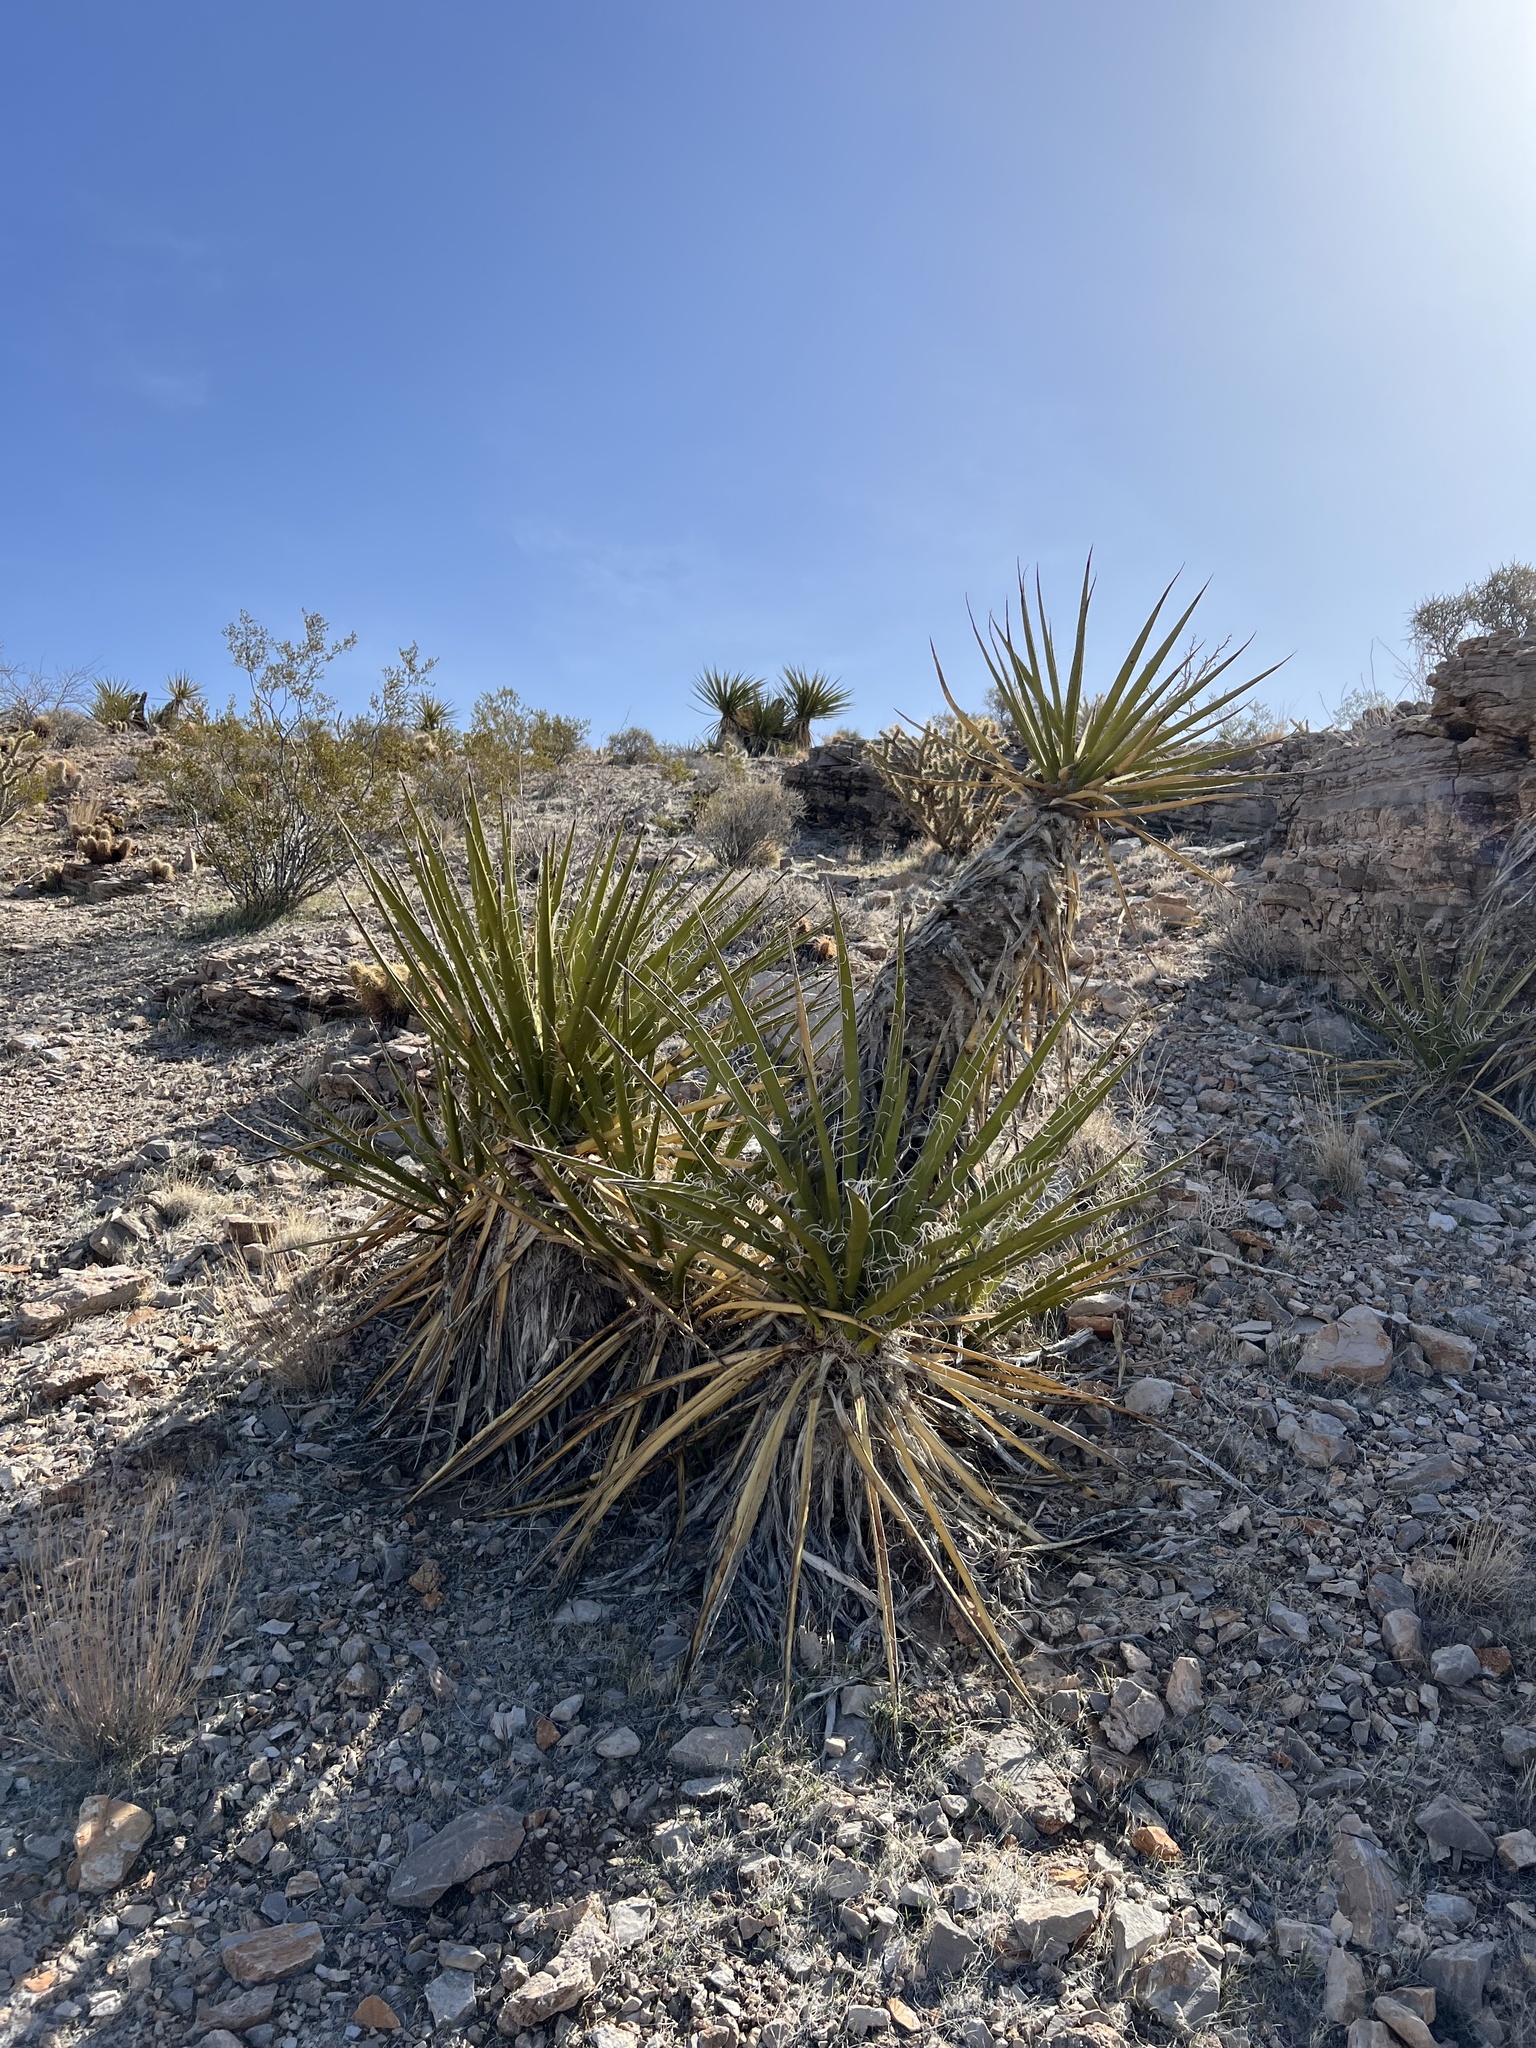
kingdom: Plantae
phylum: Tracheophyta
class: Liliopsida
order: Asparagales
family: Asparagaceae
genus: Yucca
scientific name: Yucca schidigera
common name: Mojave yucca
